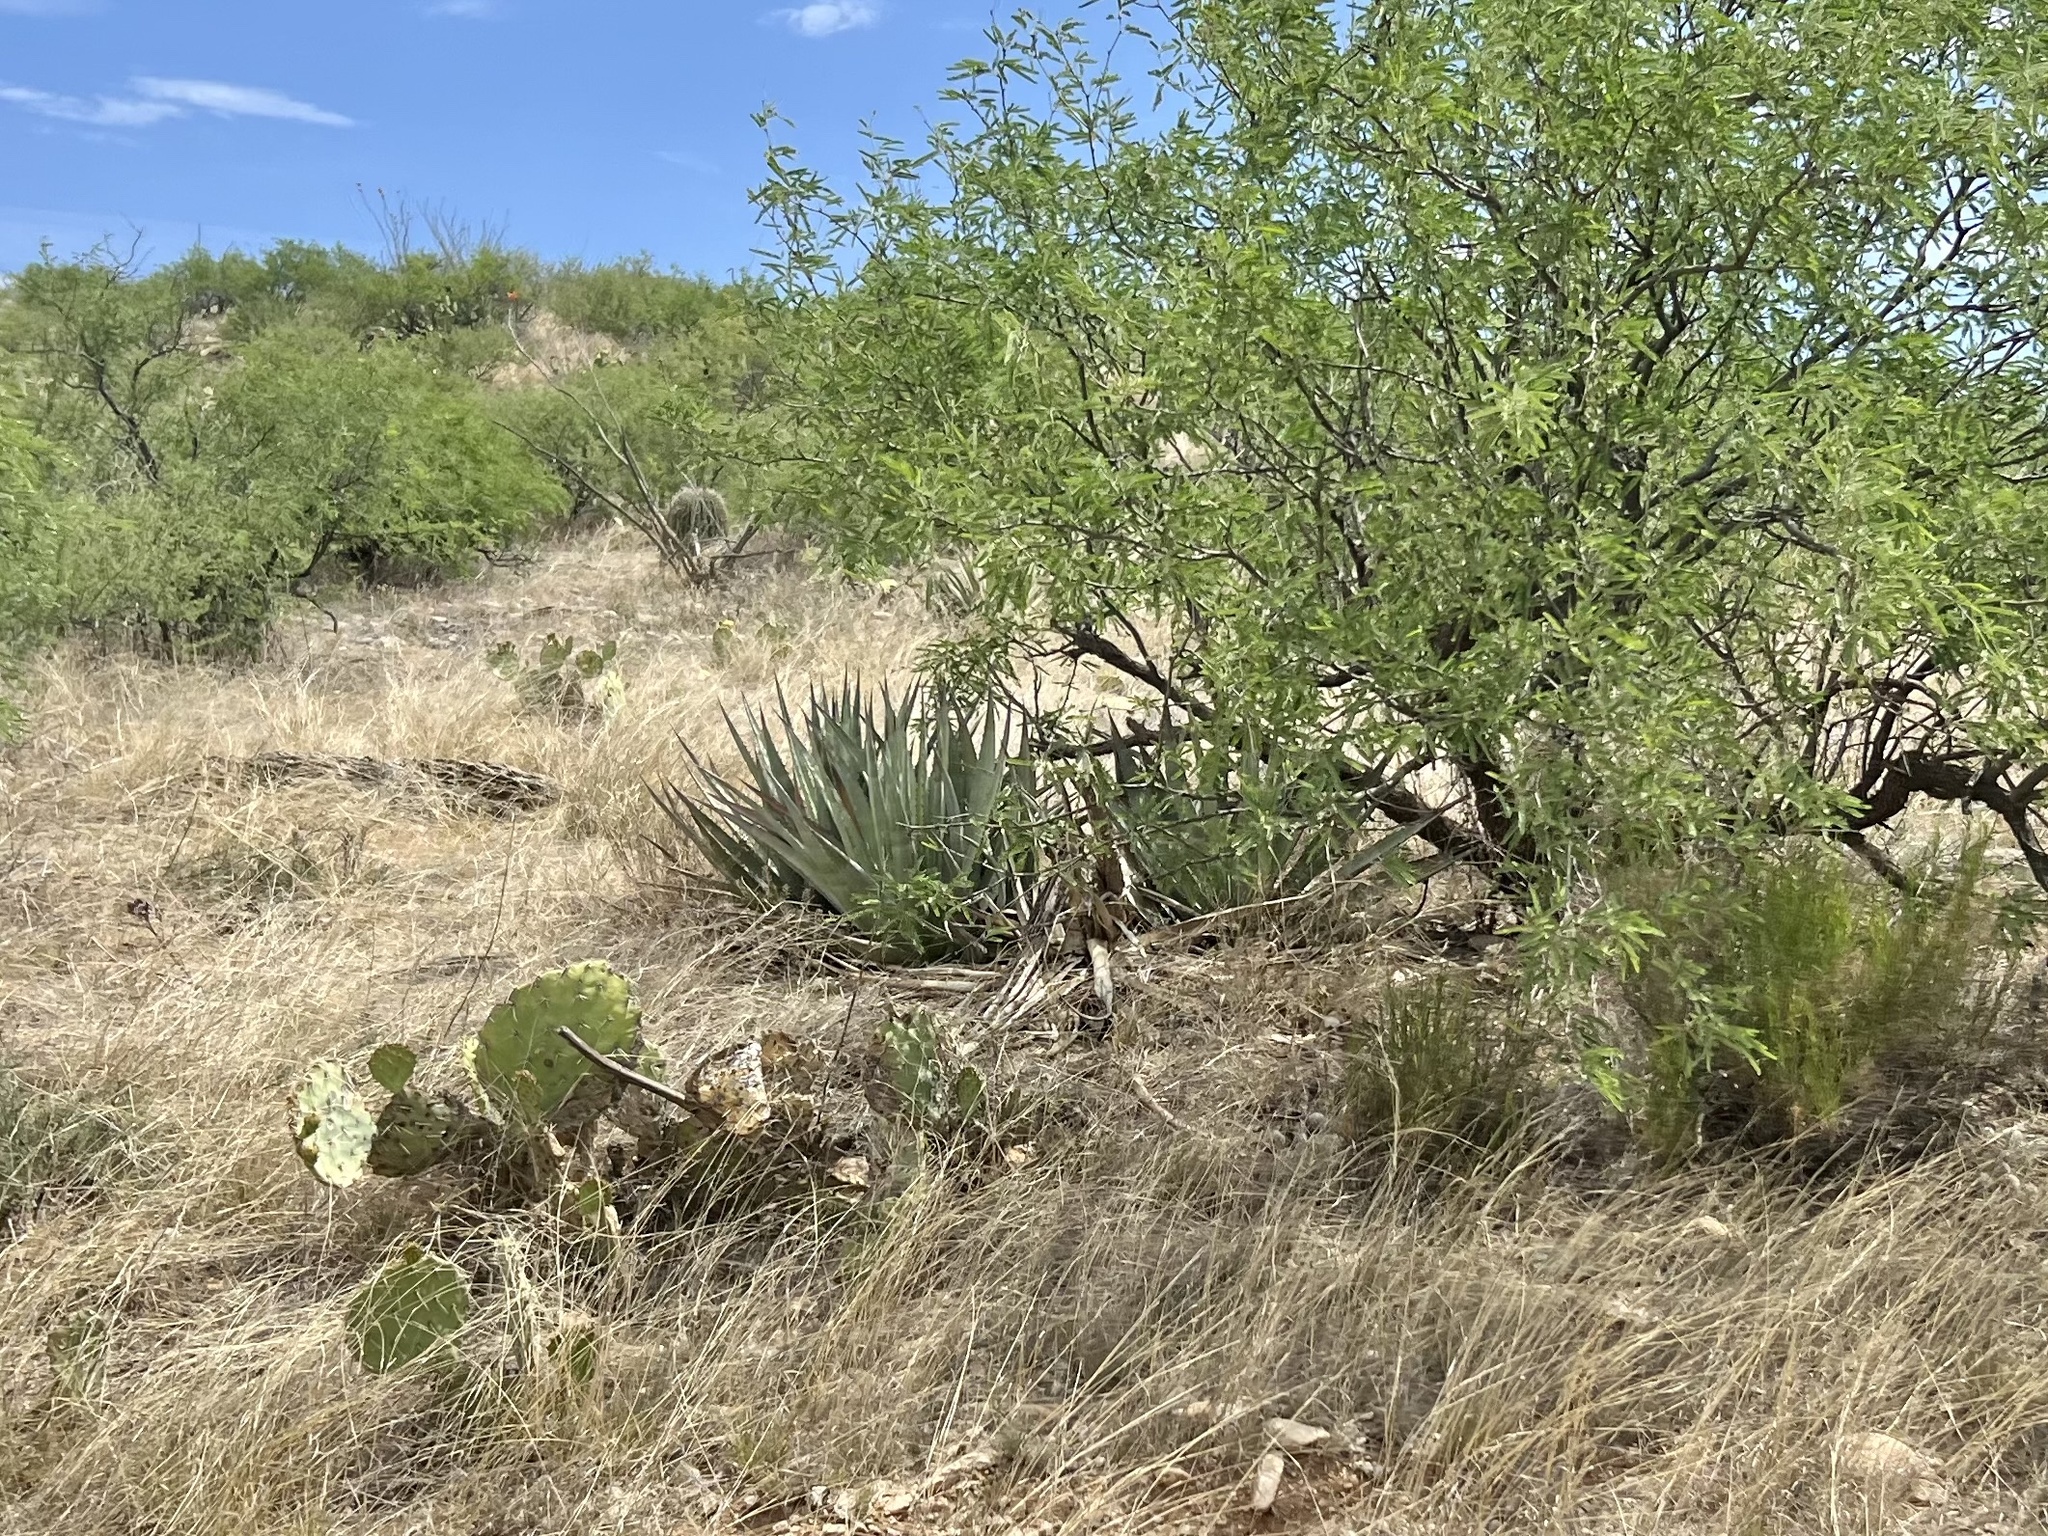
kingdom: Plantae
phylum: Tracheophyta
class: Liliopsida
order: Asparagales
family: Asparagaceae
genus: Agave
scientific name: Agave palmeri
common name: Palmer agave
